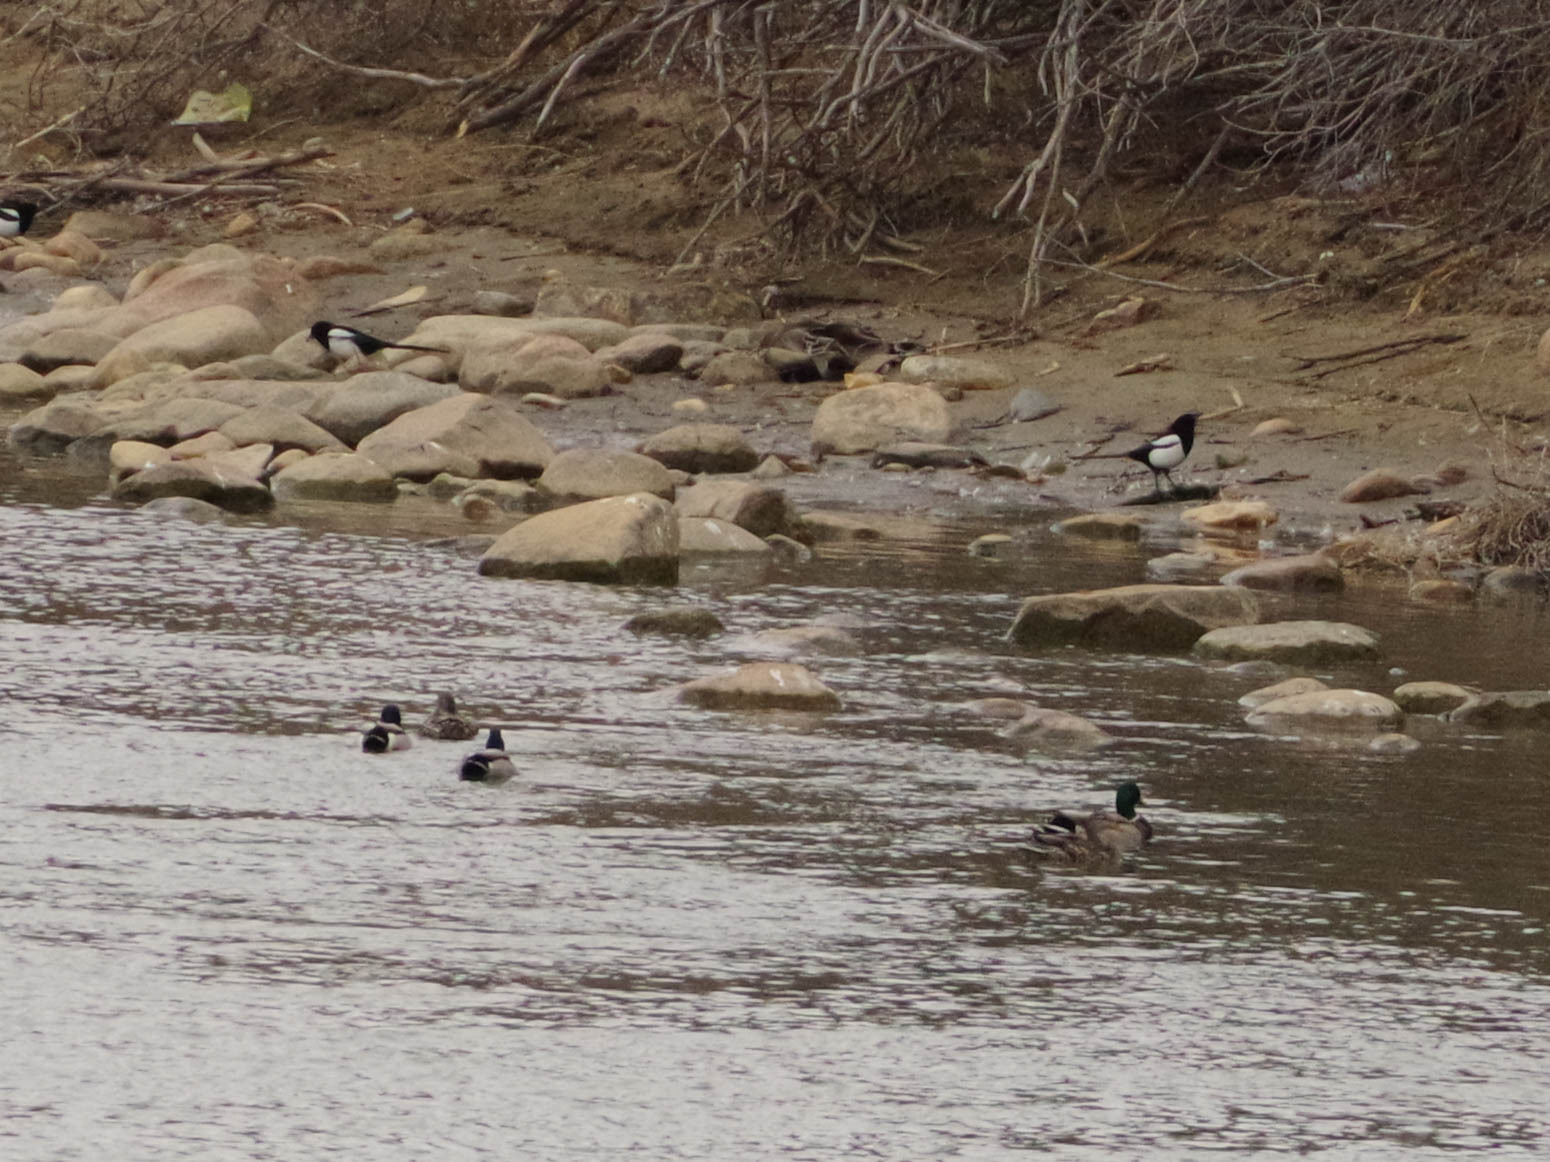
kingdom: Animalia
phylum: Chordata
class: Aves
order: Anseriformes
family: Anatidae
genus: Anas
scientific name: Anas platyrhynchos
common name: Mallard
